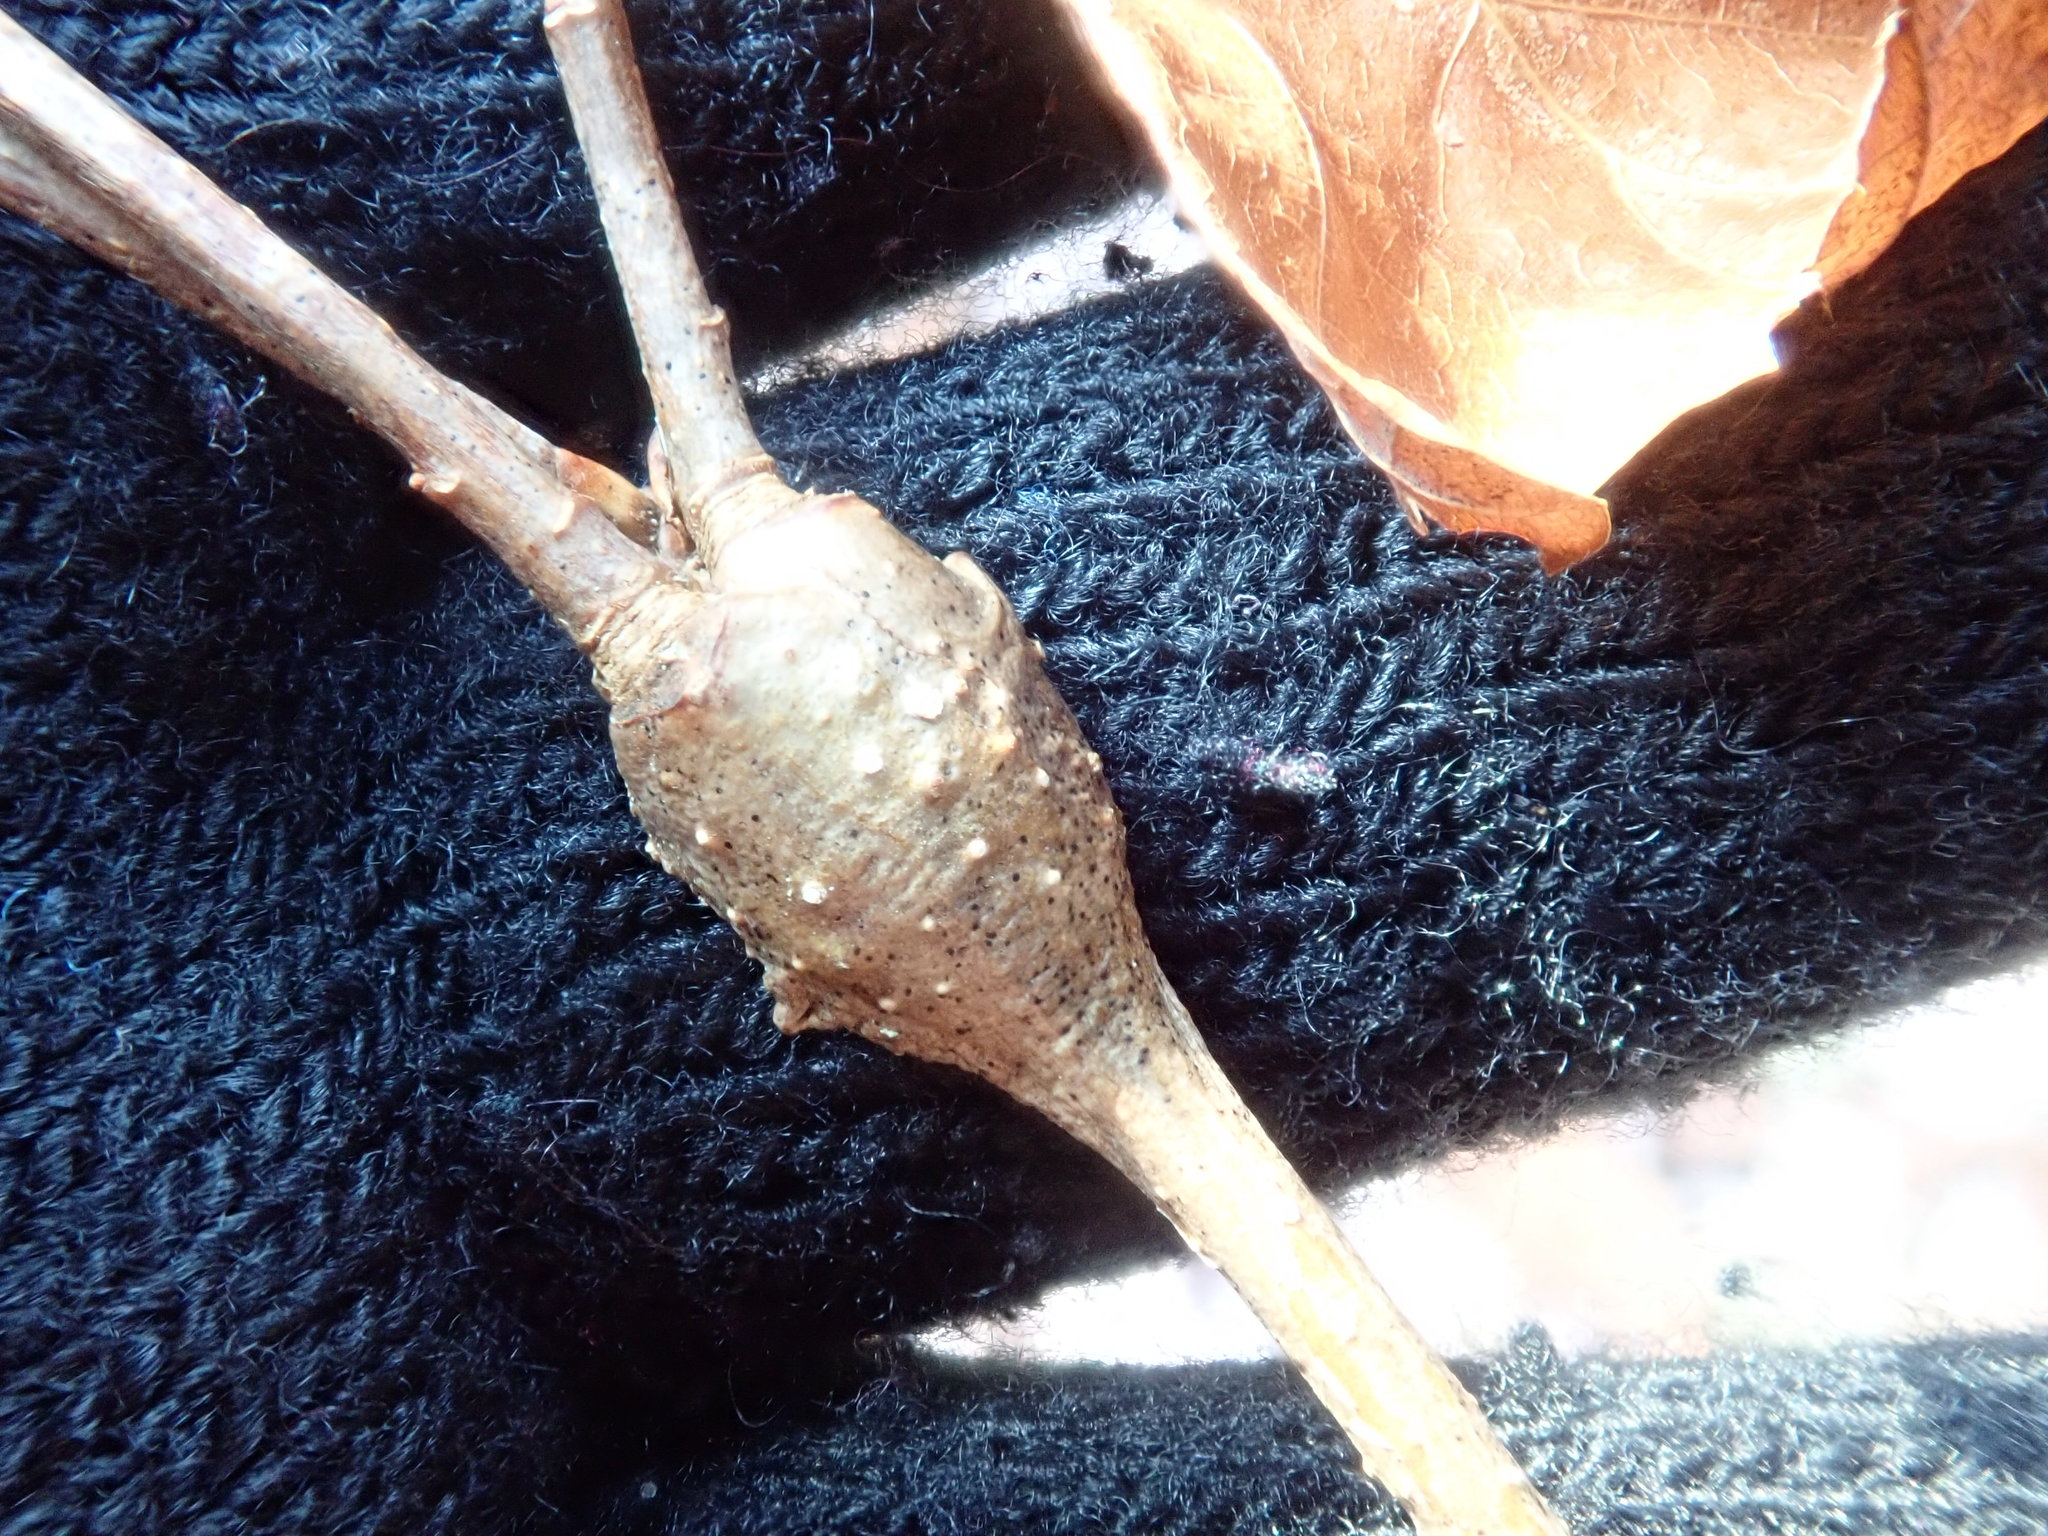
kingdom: Animalia
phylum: Arthropoda
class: Insecta
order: Hymenoptera
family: Cynipidae
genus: Callirhytis
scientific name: Callirhytis clavula
